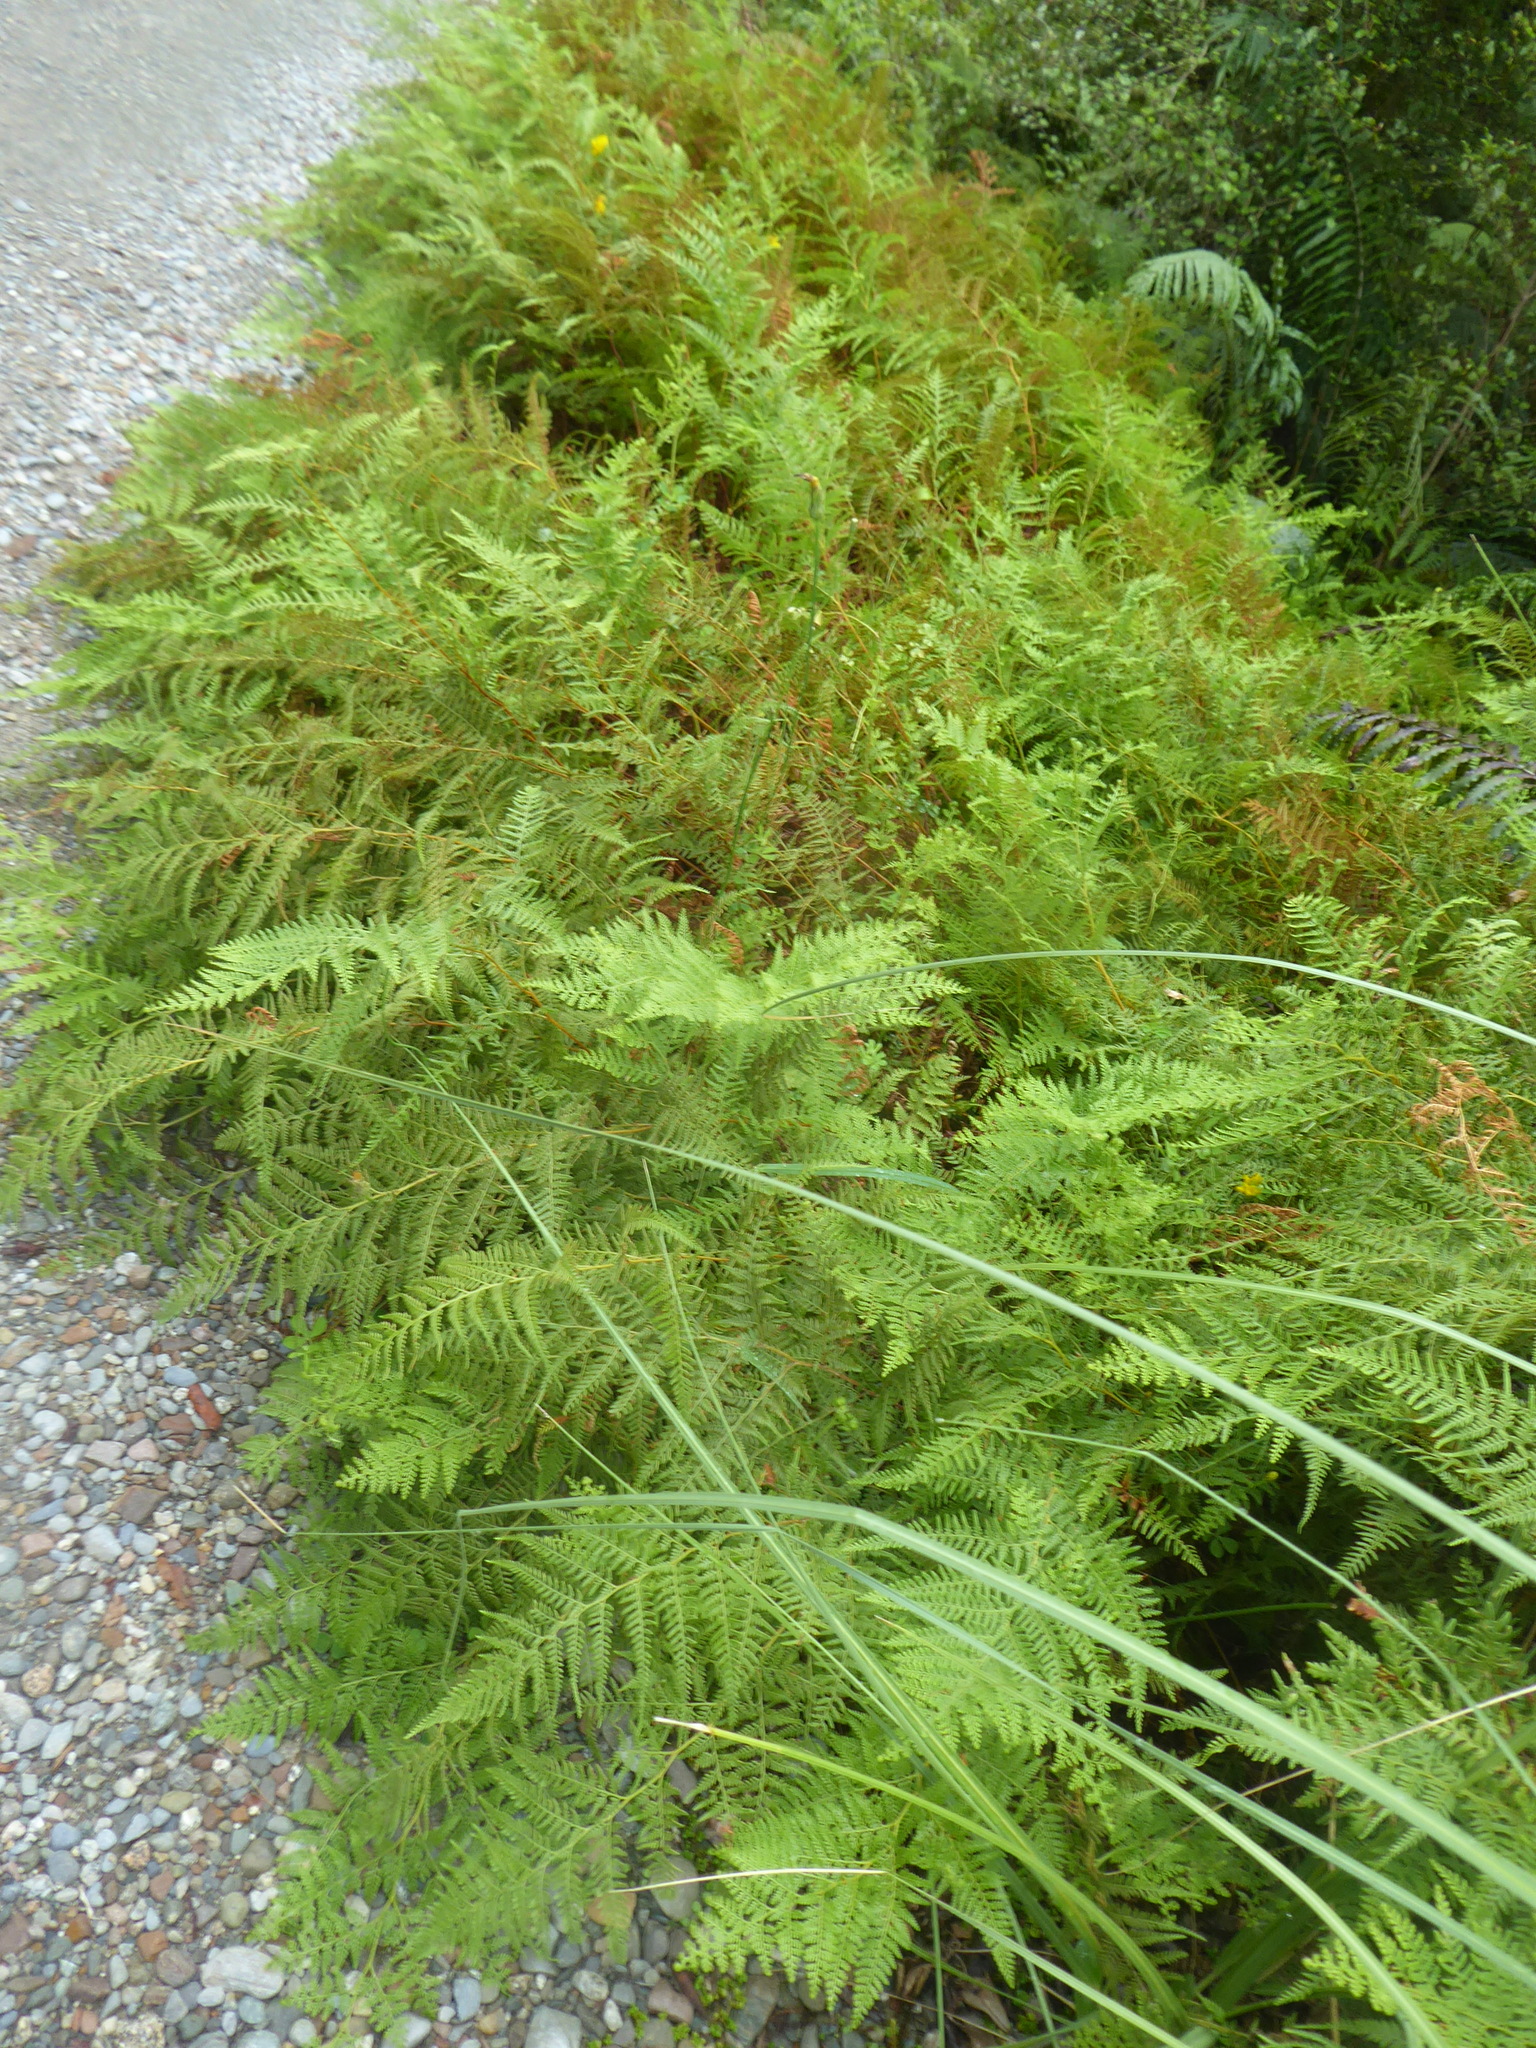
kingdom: Plantae
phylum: Tracheophyta
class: Polypodiopsida
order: Polypodiales
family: Dennstaedtiaceae
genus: Paesia
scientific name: Paesia scaberula
